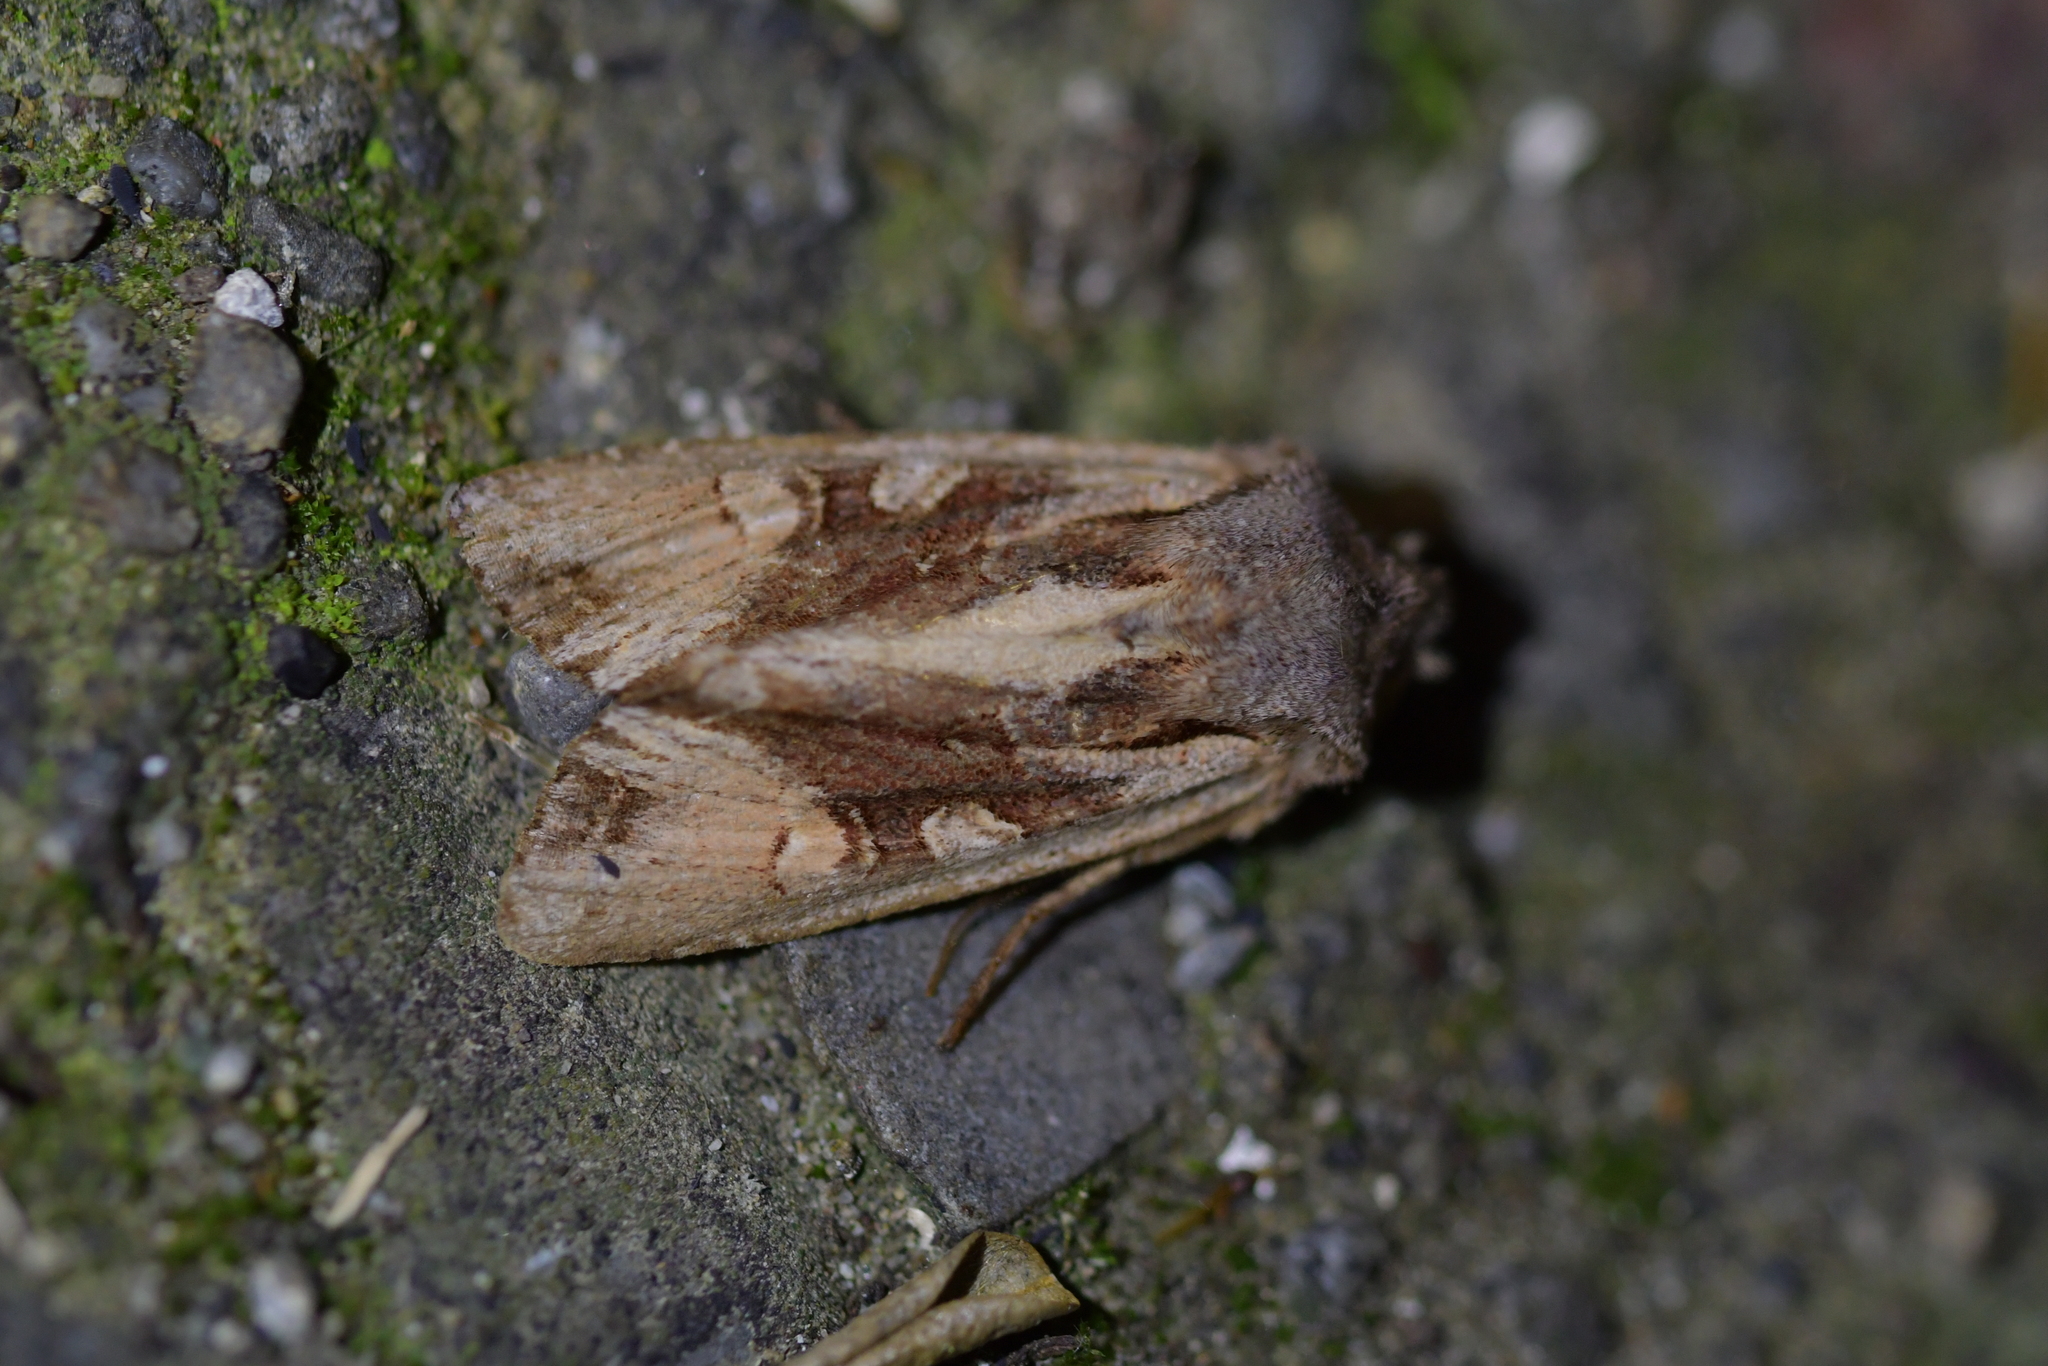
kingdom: Animalia
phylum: Arthropoda
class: Insecta
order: Lepidoptera
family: Noctuidae
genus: Ichneutica
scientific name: Ichneutica
